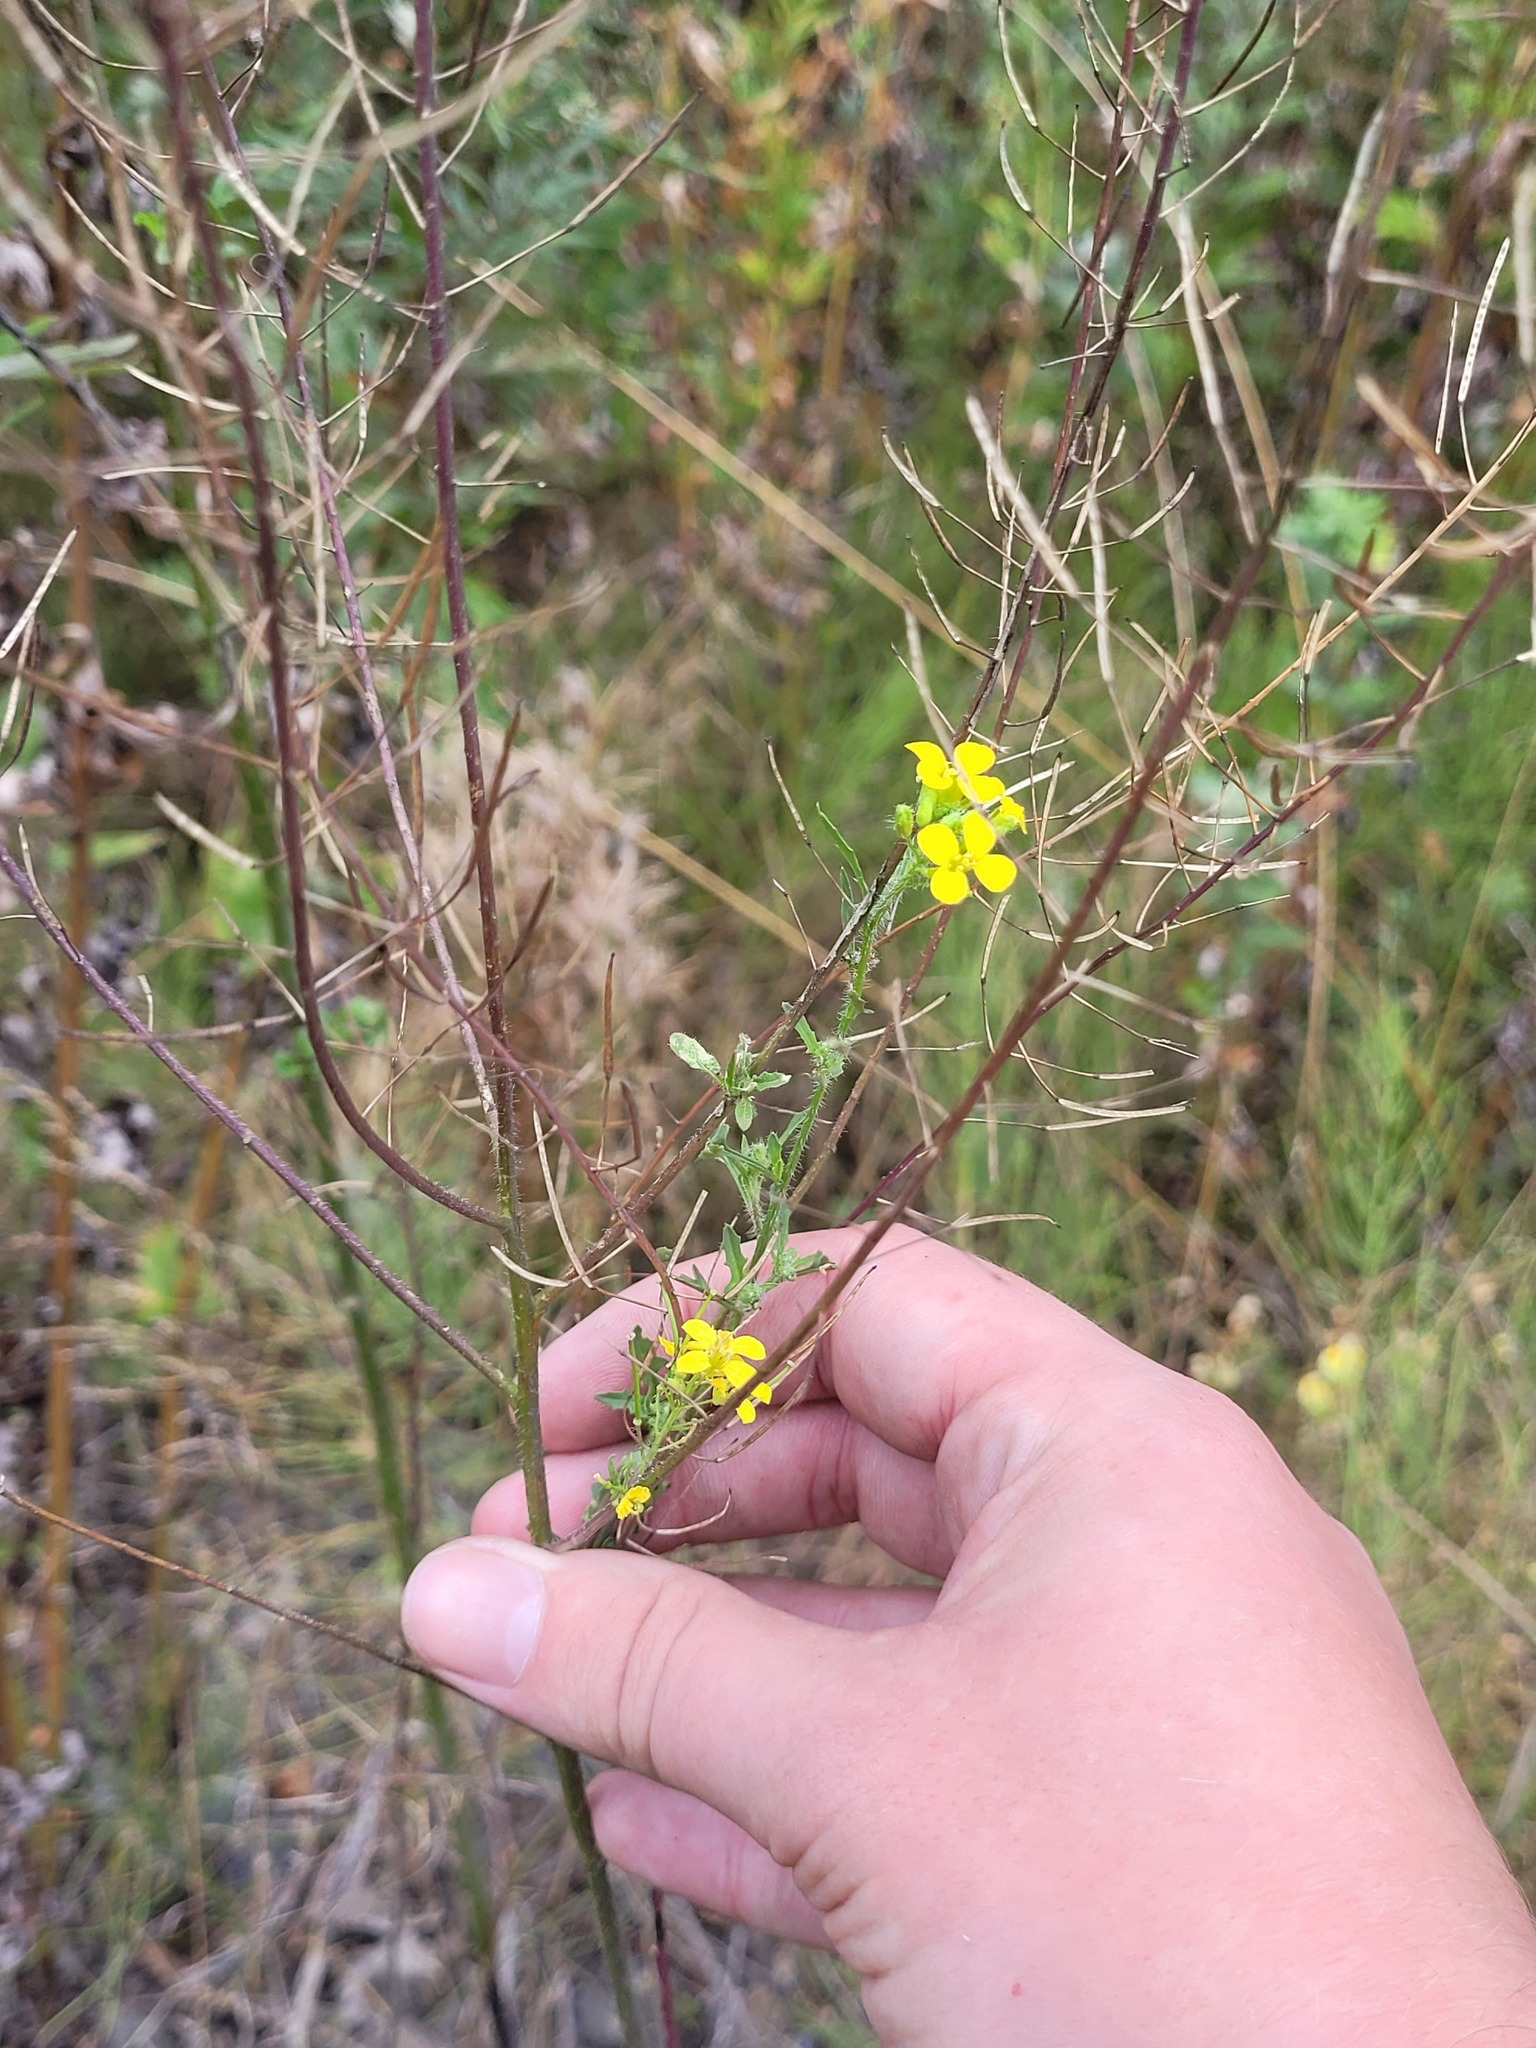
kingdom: Plantae
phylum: Tracheophyta
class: Magnoliopsida
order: Brassicales
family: Brassicaceae
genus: Sisymbrium
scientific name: Sisymbrium loeselii
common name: False london-rocket
